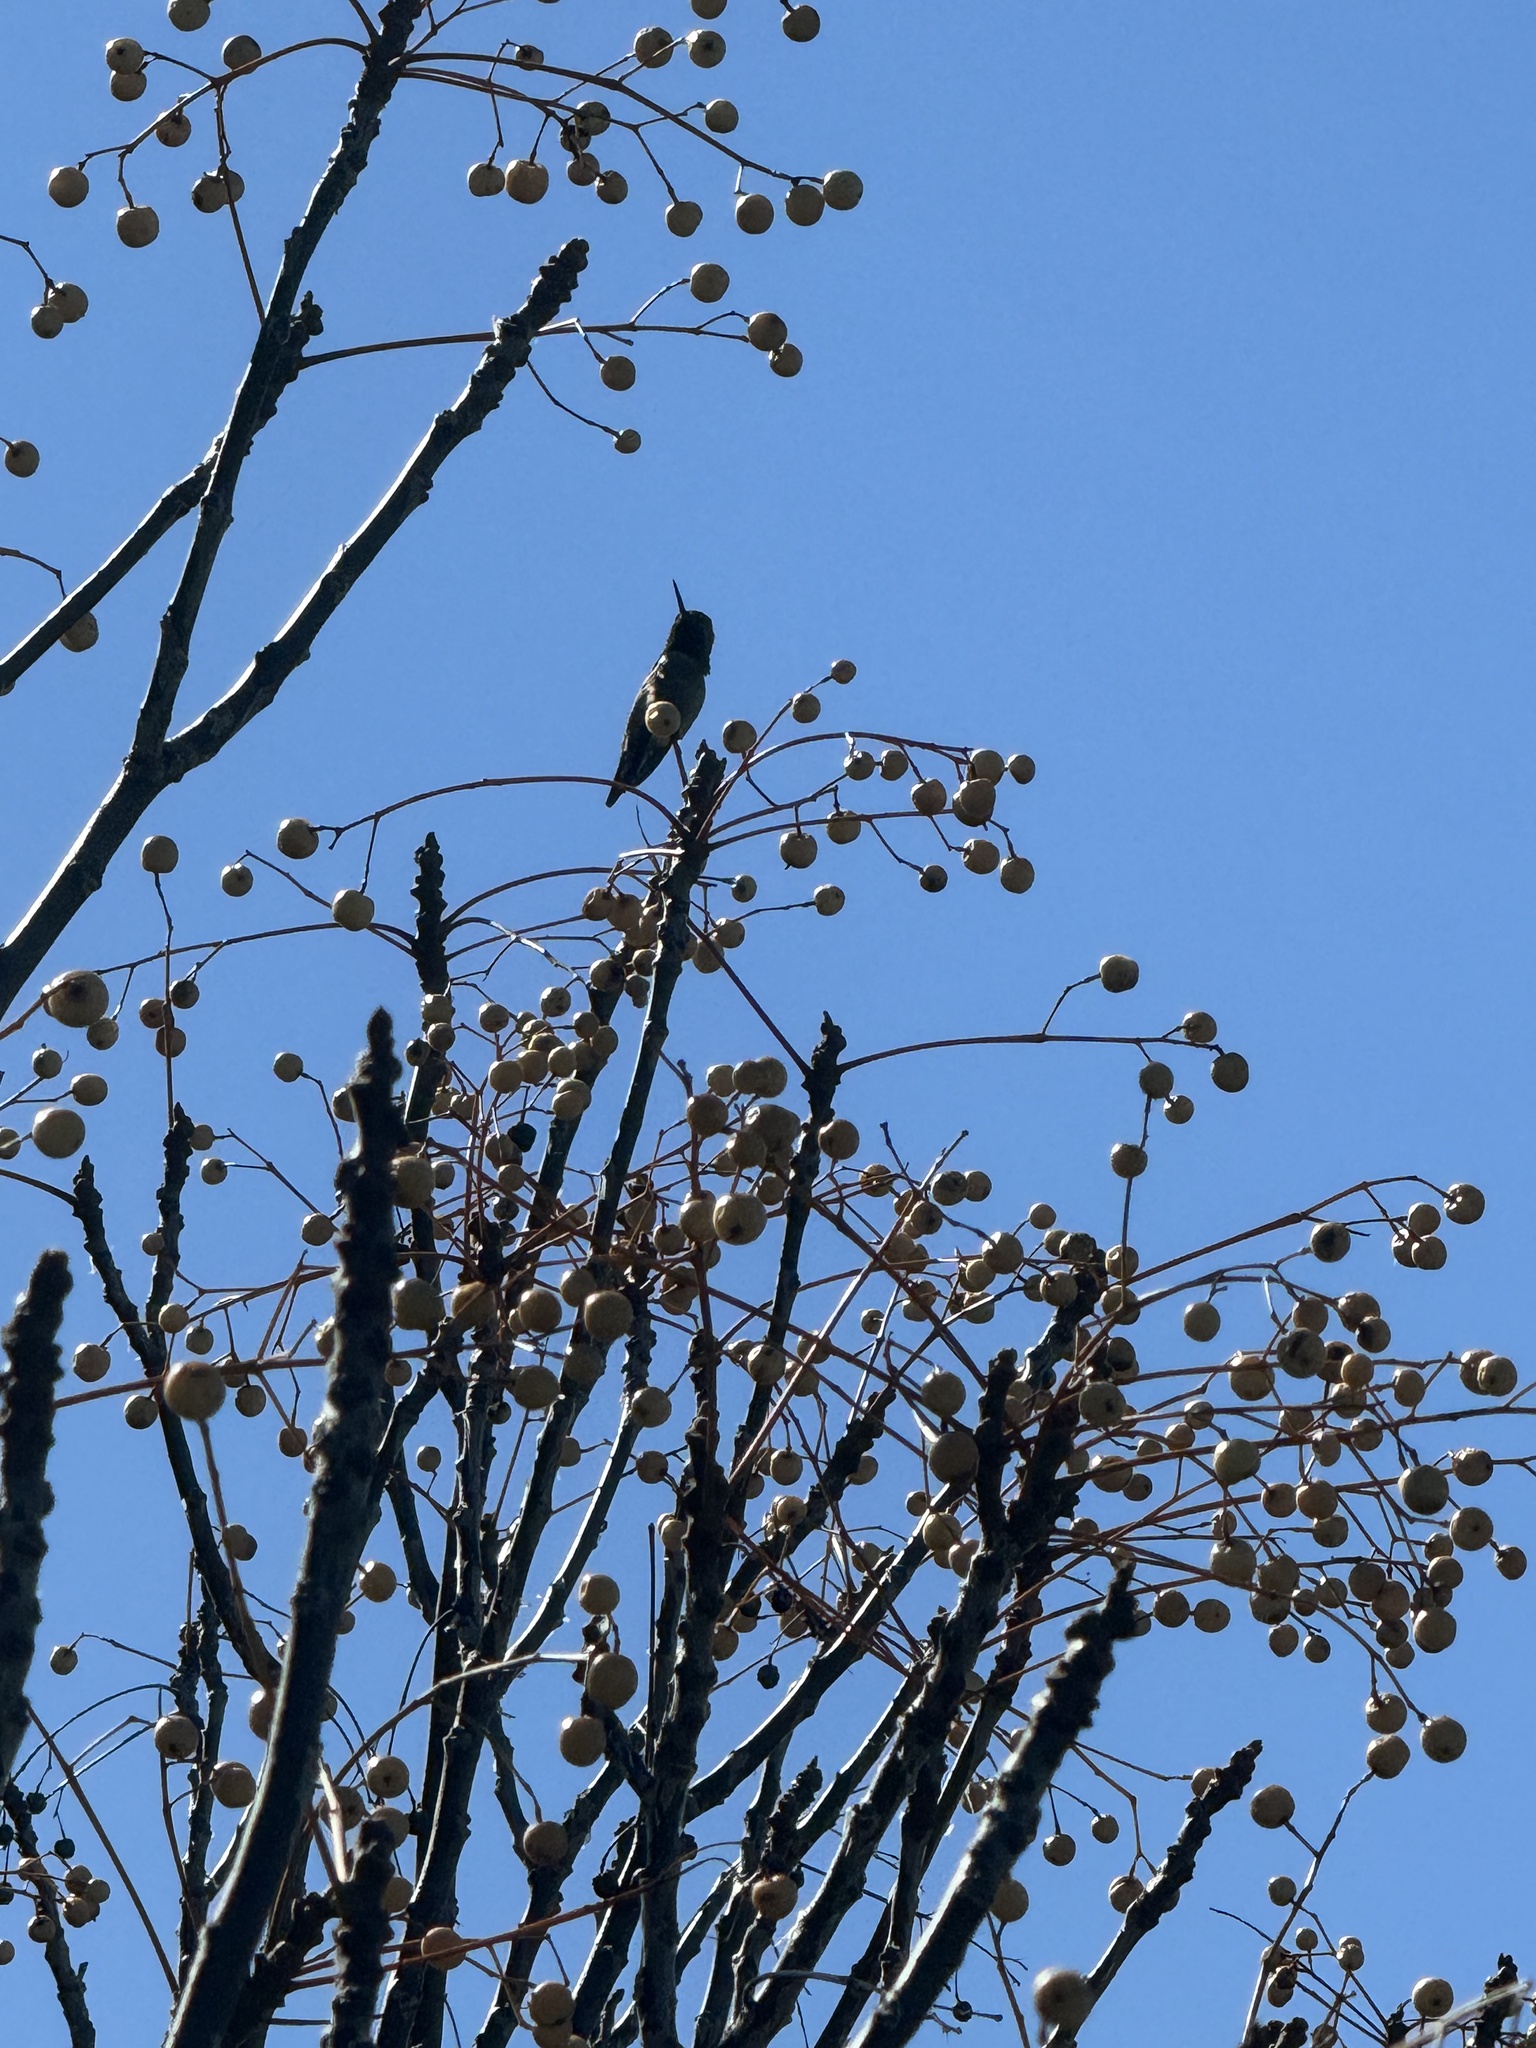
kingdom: Animalia
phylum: Chordata
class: Aves
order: Apodiformes
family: Trochilidae
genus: Calypte
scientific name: Calypte anna
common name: Anna's hummingbird
